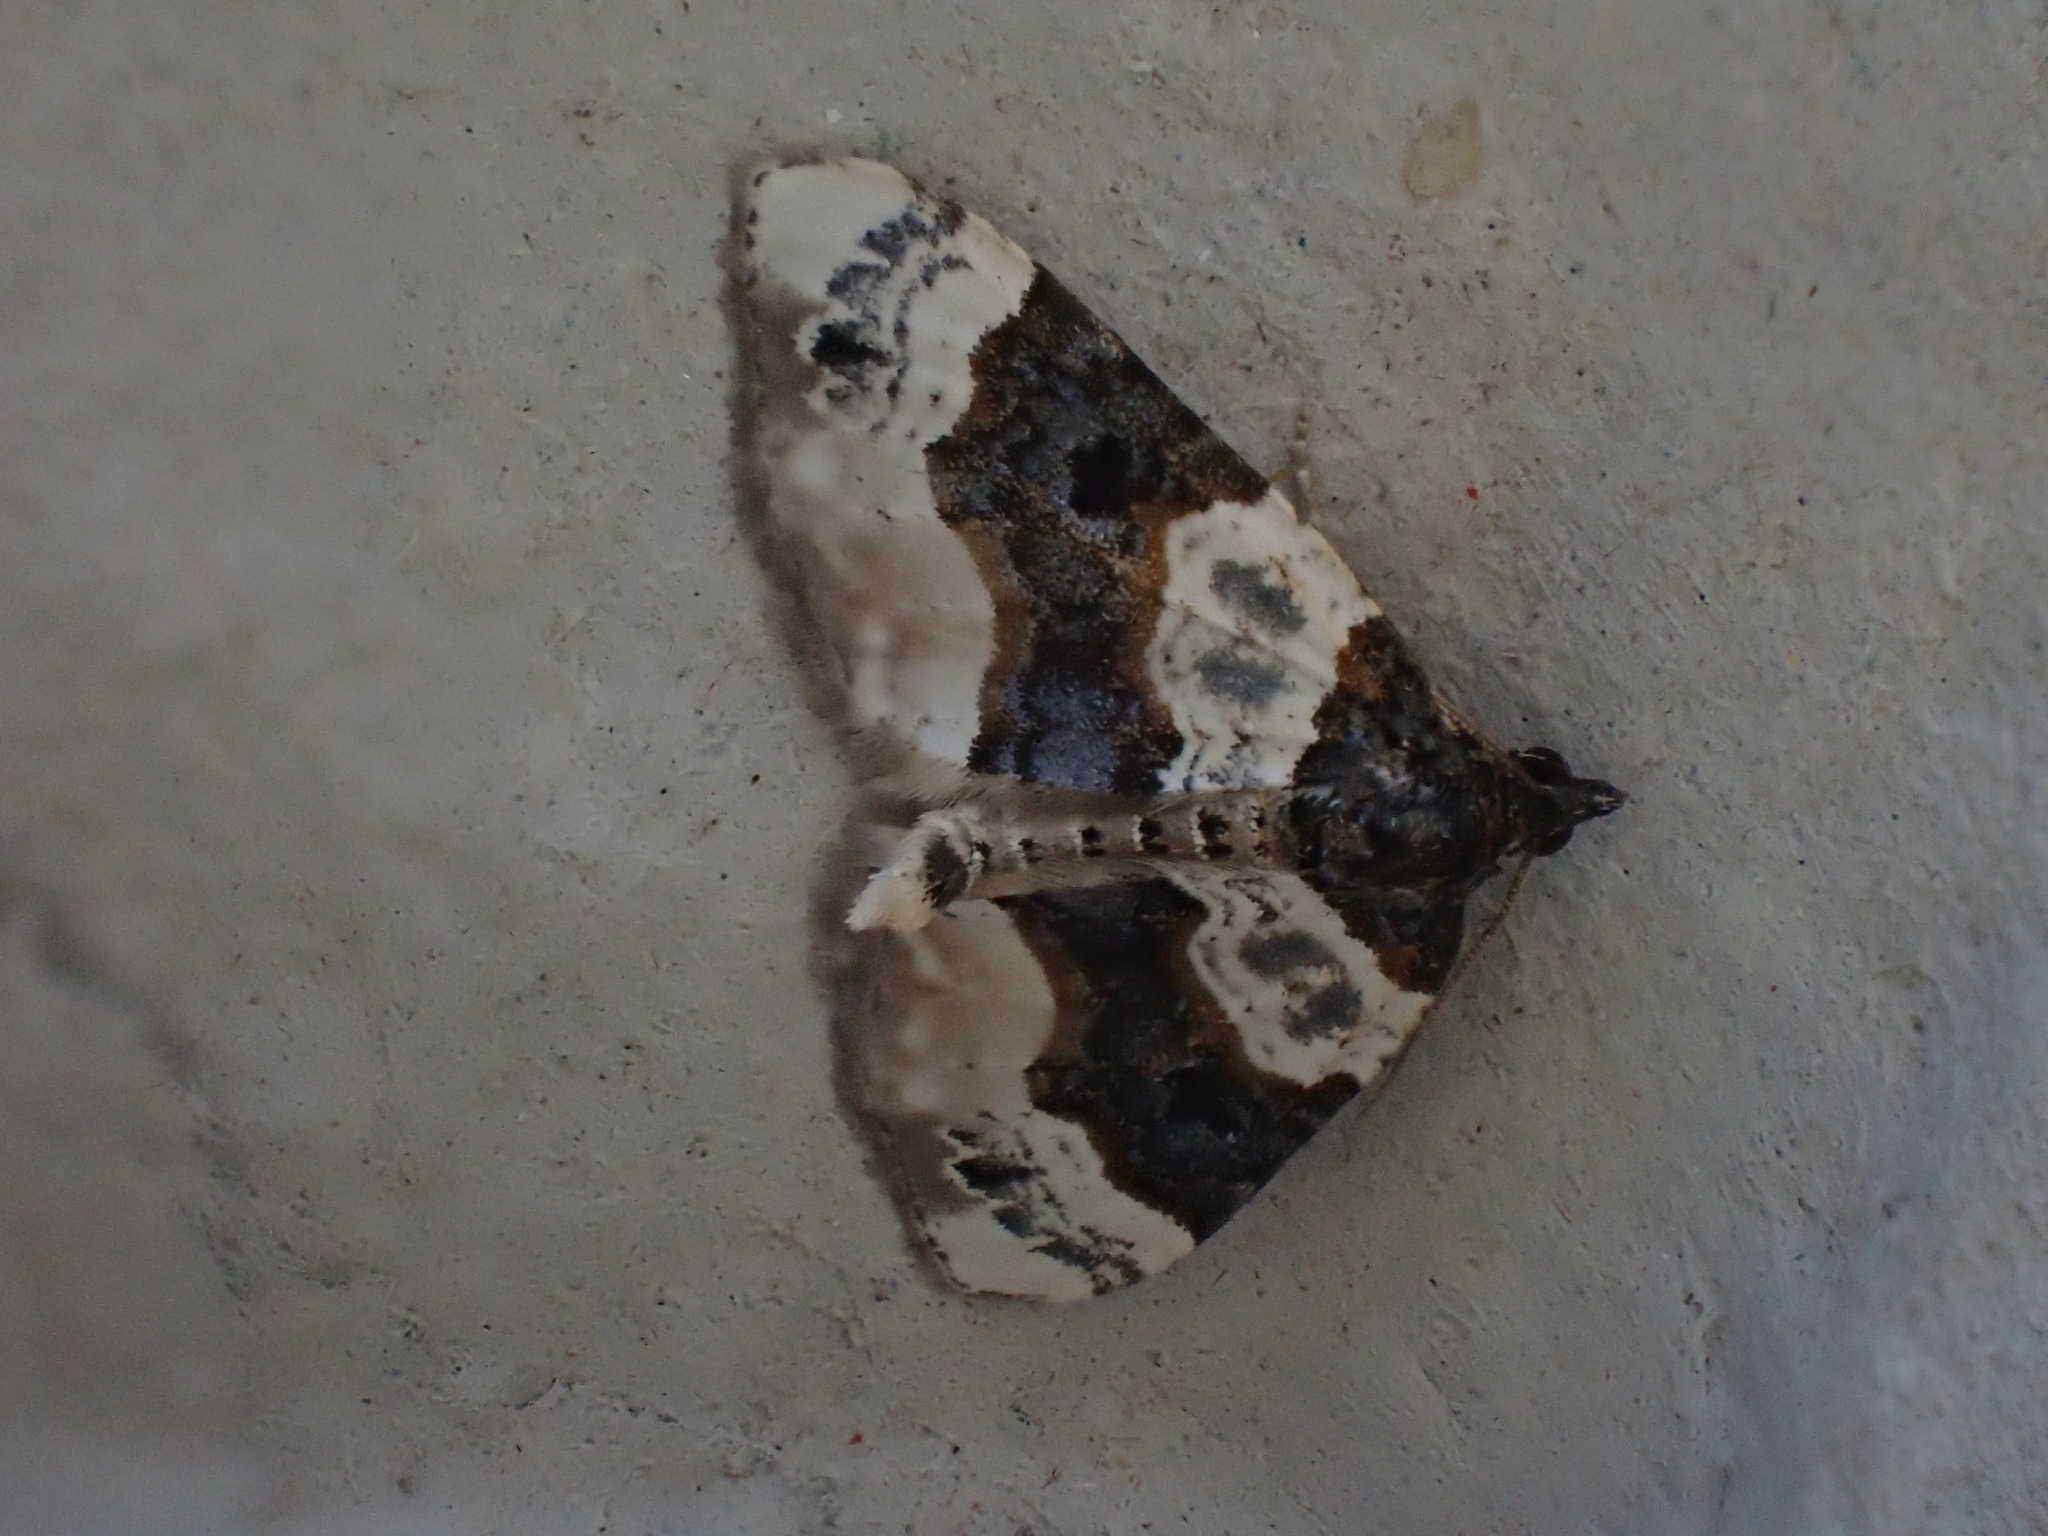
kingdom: Animalia
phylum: Arthropoda
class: Insecta
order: Lepidoptera
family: Geometridae
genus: Cosmorhoe
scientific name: Cosmorhoe ocellata
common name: Purple bar
